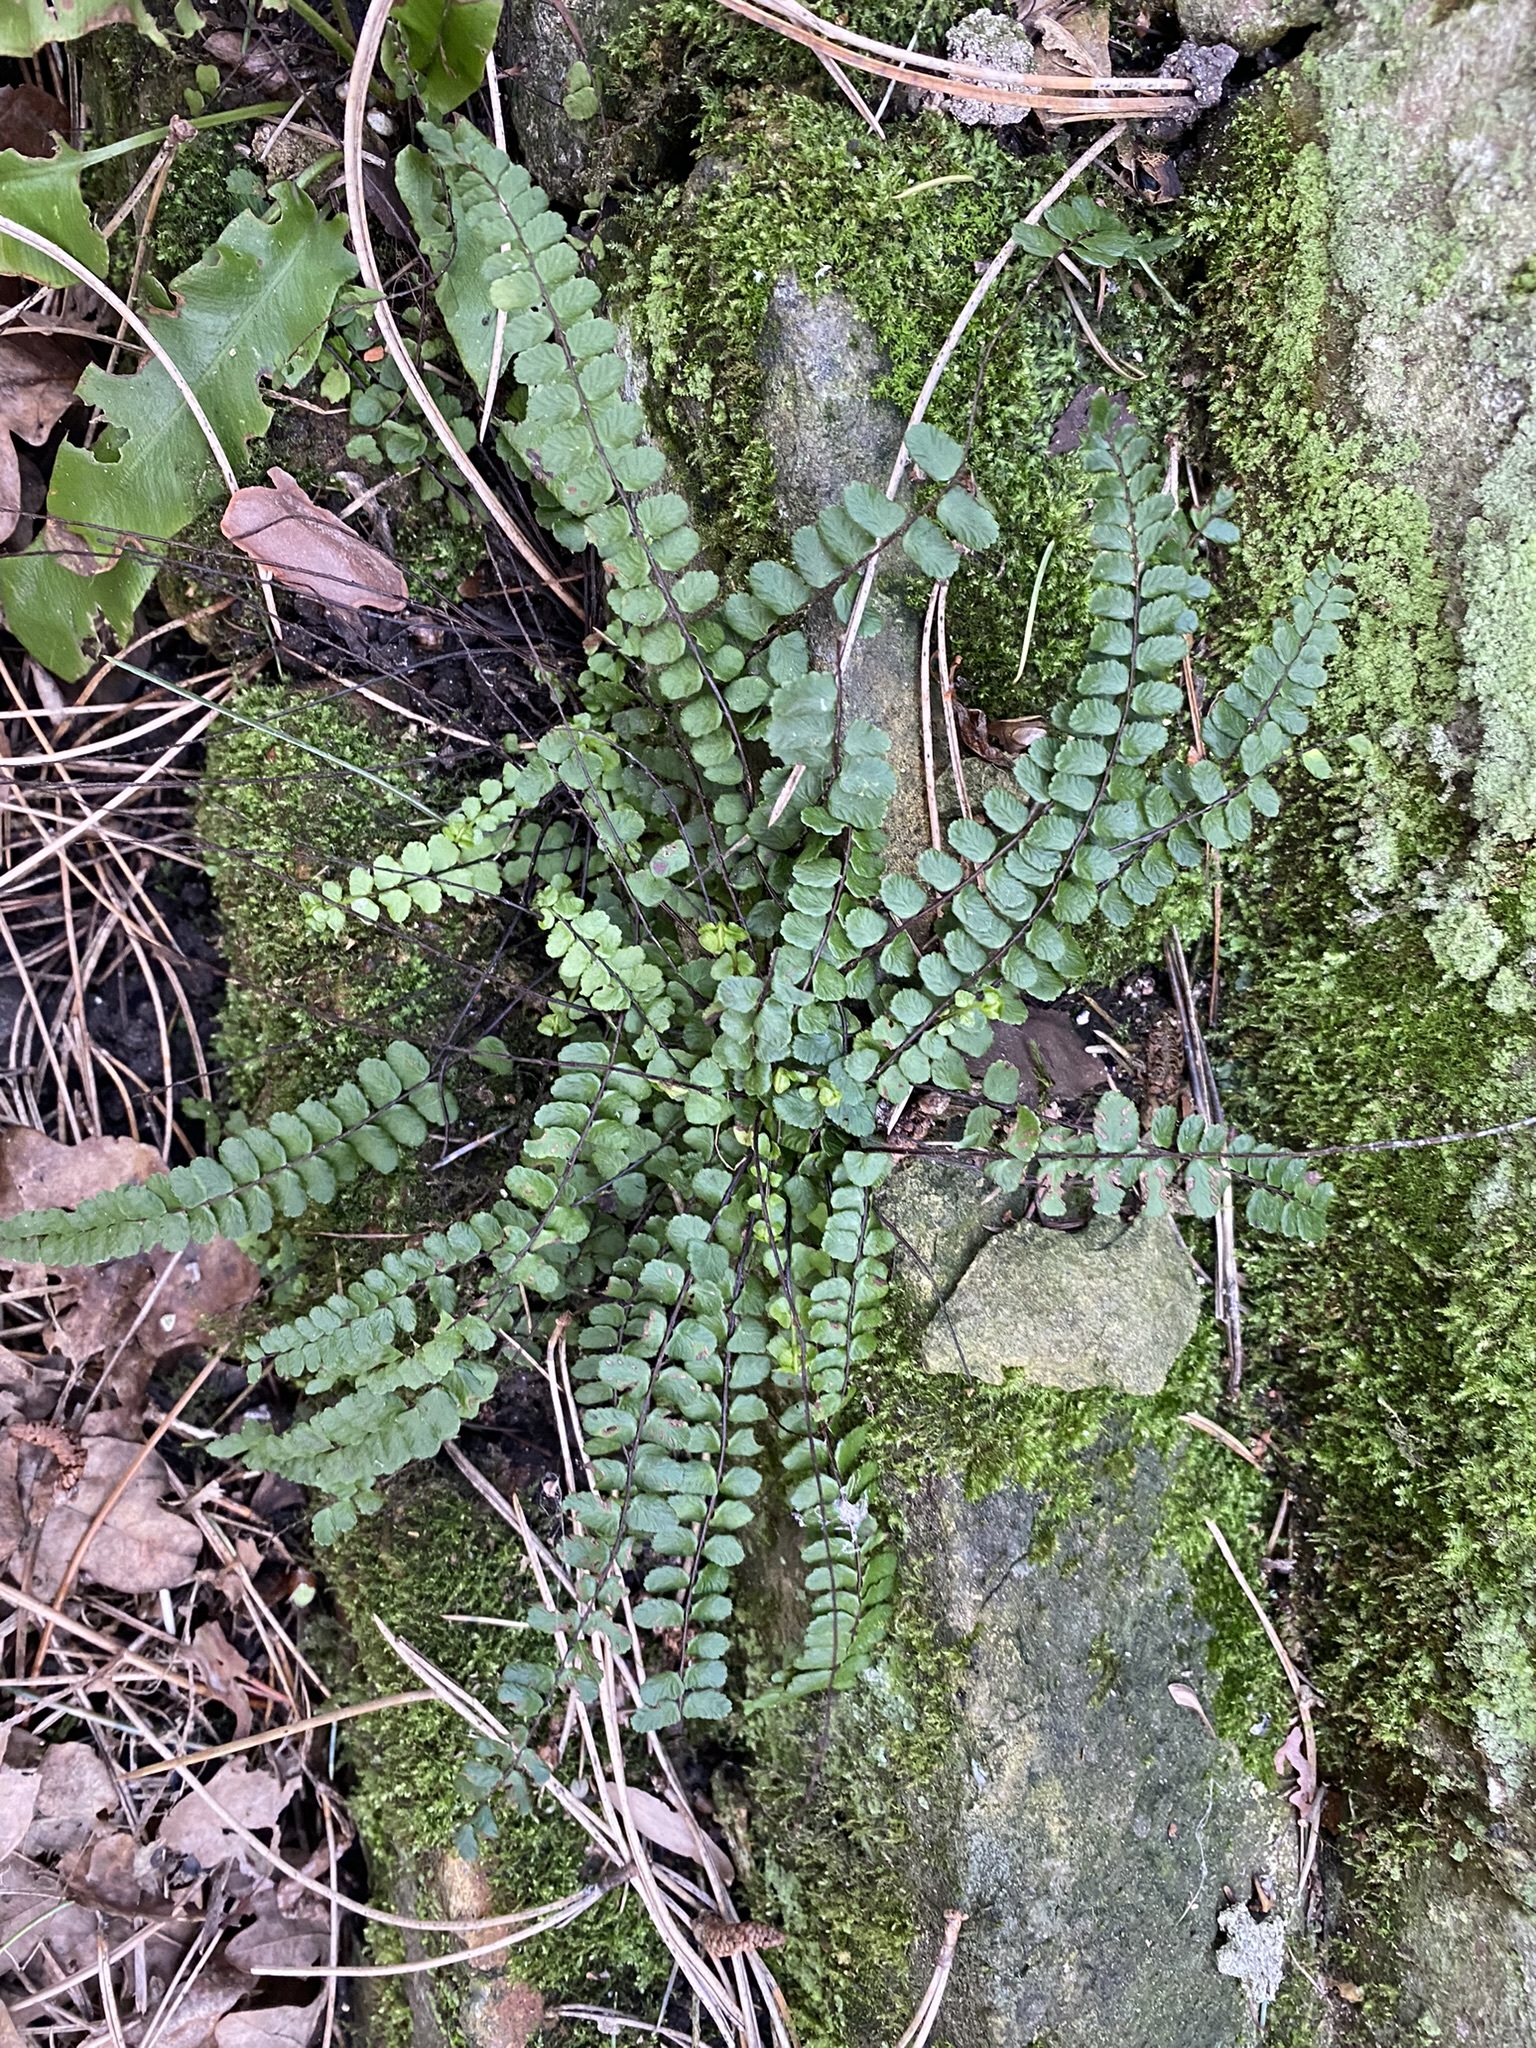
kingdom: Plantae
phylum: Tracheophyta
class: Polypodiopsida
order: Polypodiales
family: Aspleniaceae
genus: Asplenium
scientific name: Asplenium trichomanes
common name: Maidenhair spleenwort
